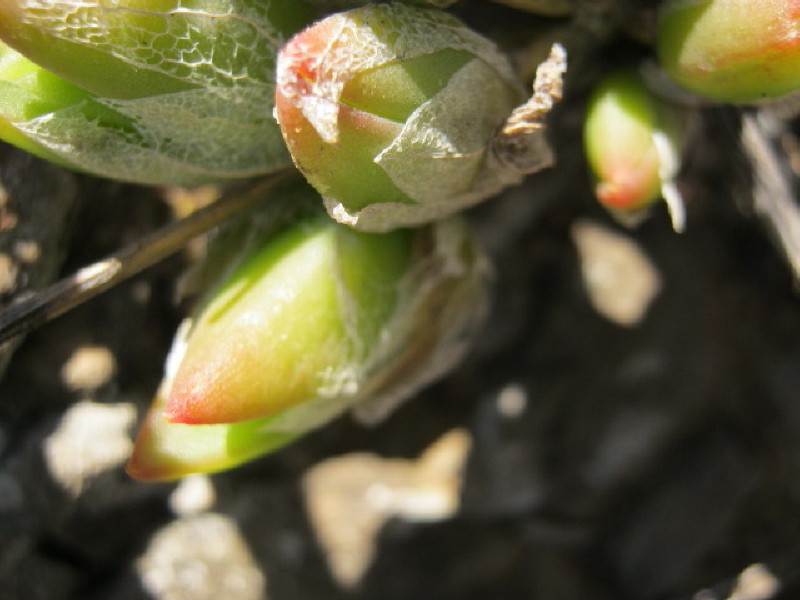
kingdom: Plantae
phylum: Tracheophyta
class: Magnoliopsida
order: Caryophyllales
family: Aizoaceae
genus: Mesembryanthemum
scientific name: Mesembryanthemum tortuosum
